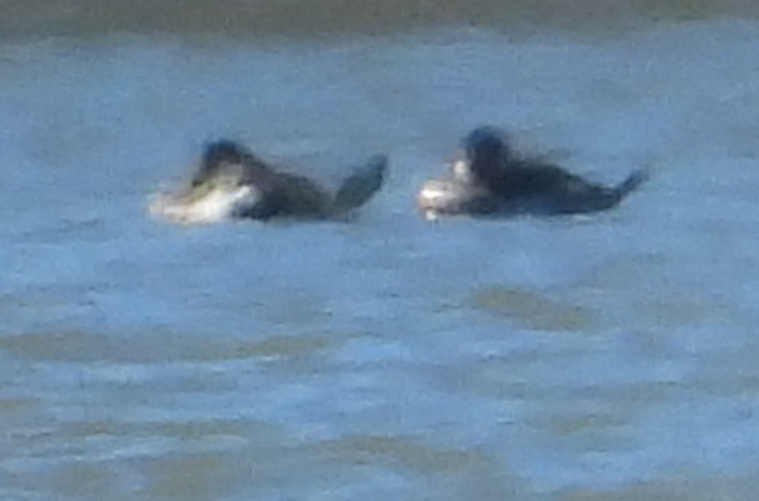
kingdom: Animalia
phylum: Chordata
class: Aves
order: Anseriformes
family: Anatidae
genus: Oxyura
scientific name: Oxyura jamaicensis
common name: Ruddy duck
